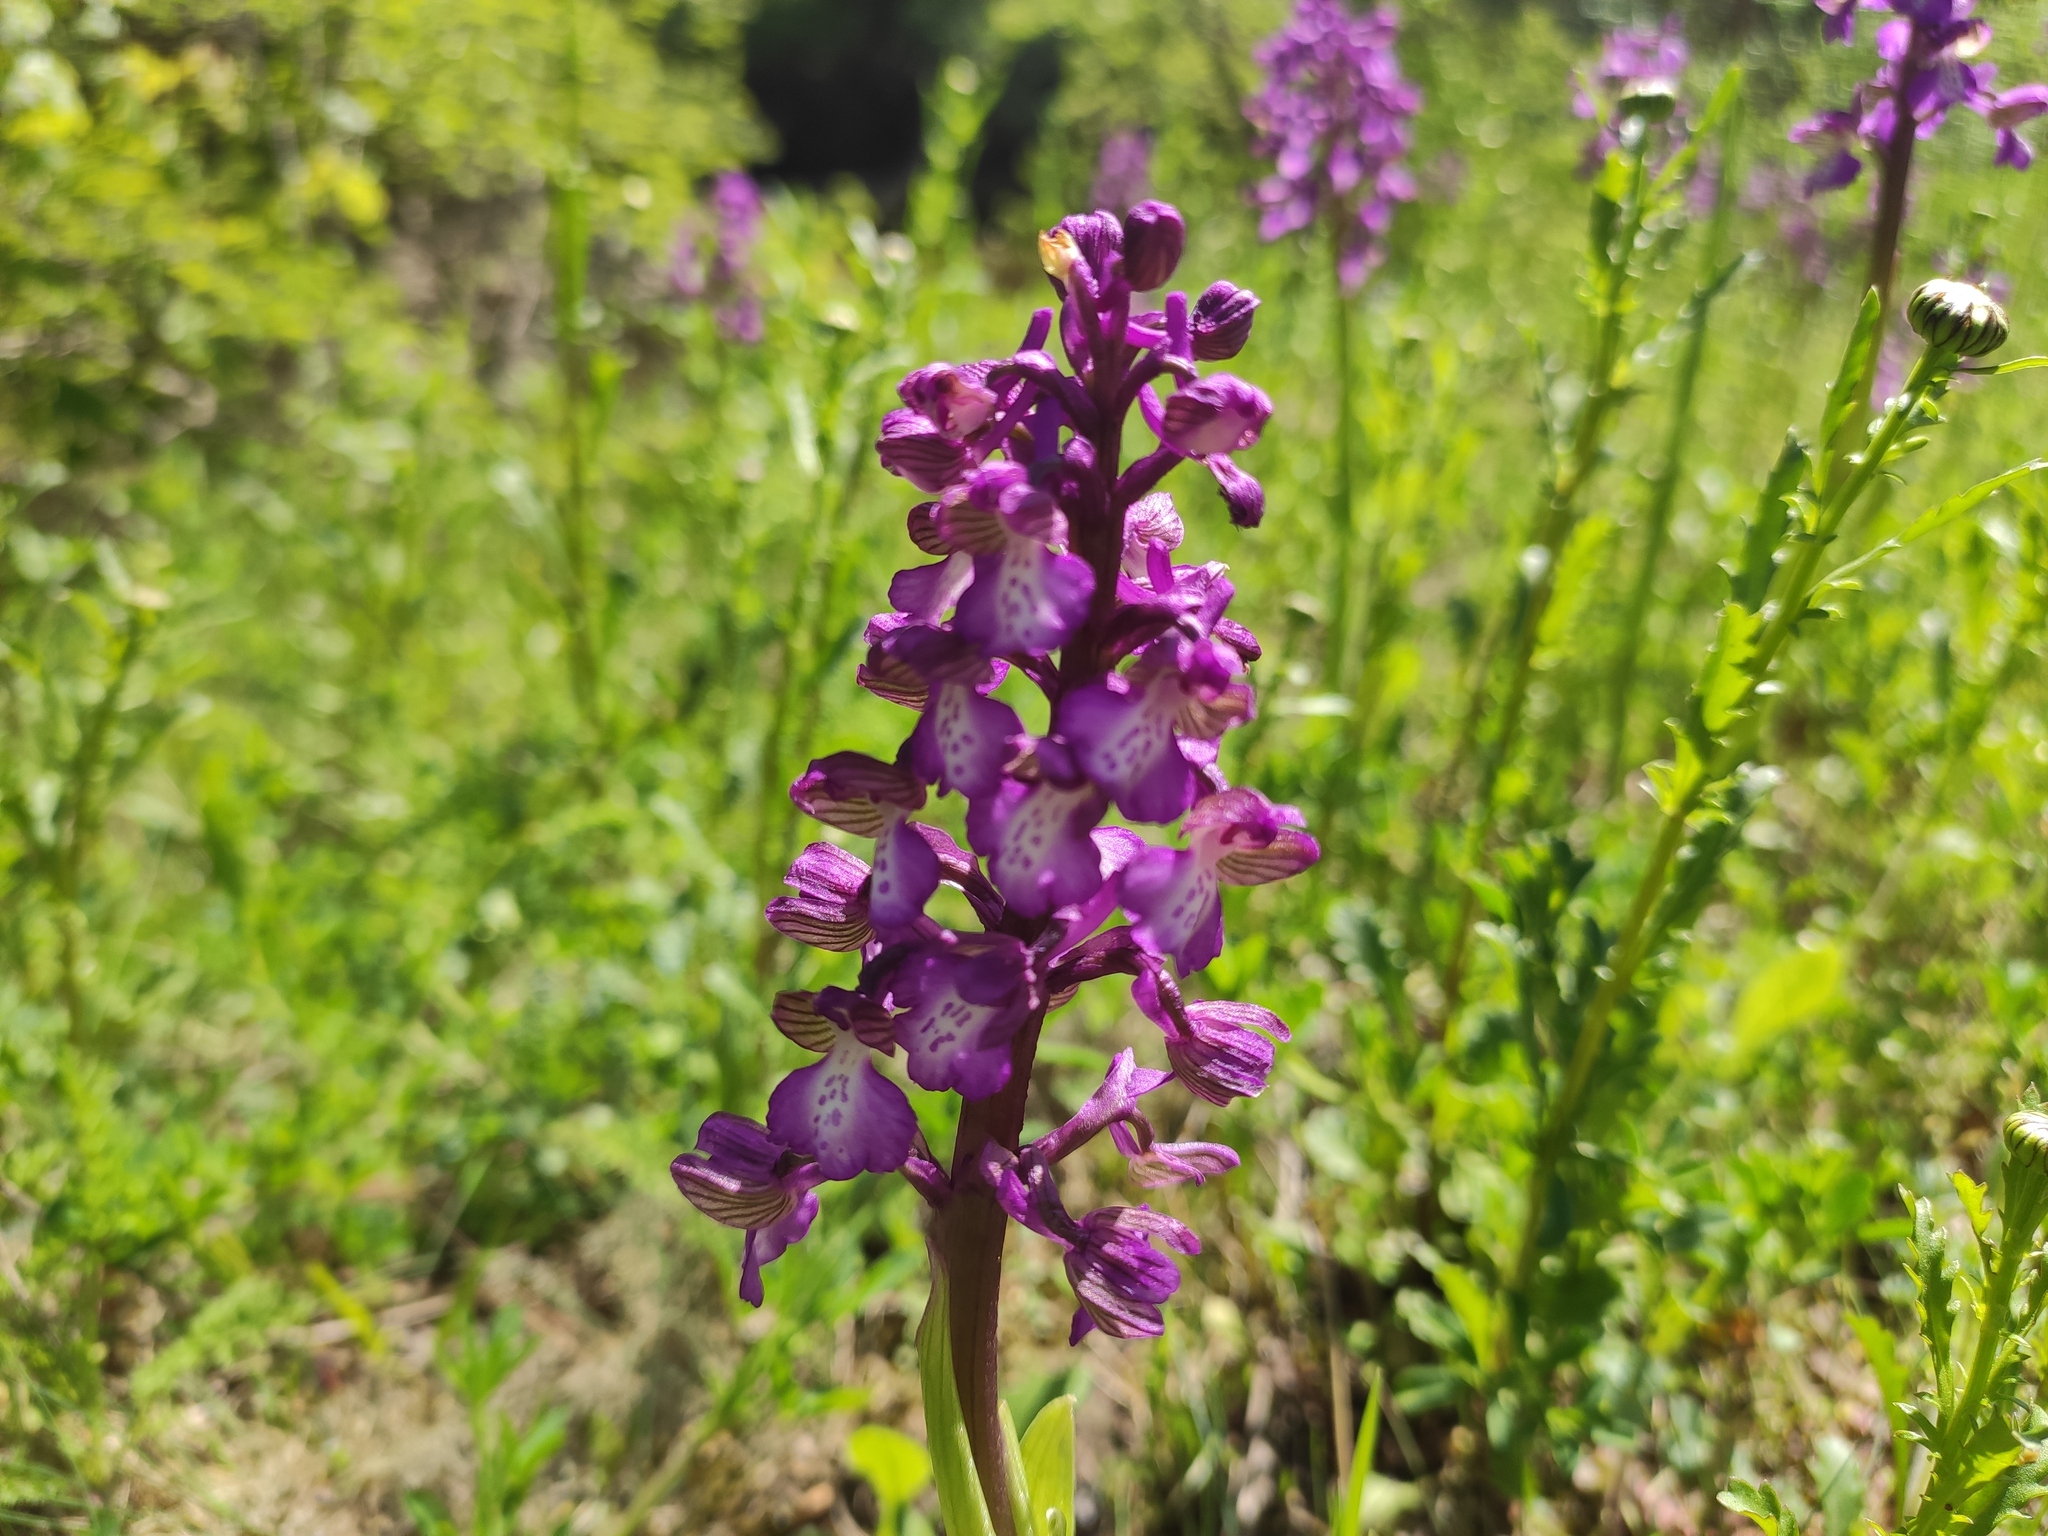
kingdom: Plantae
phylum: Tracheophyta
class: Liliopsida
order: Asparagales
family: Orchidaceae
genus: Anacamptis
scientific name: Anacamptis morio
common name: Green-winged orchid
